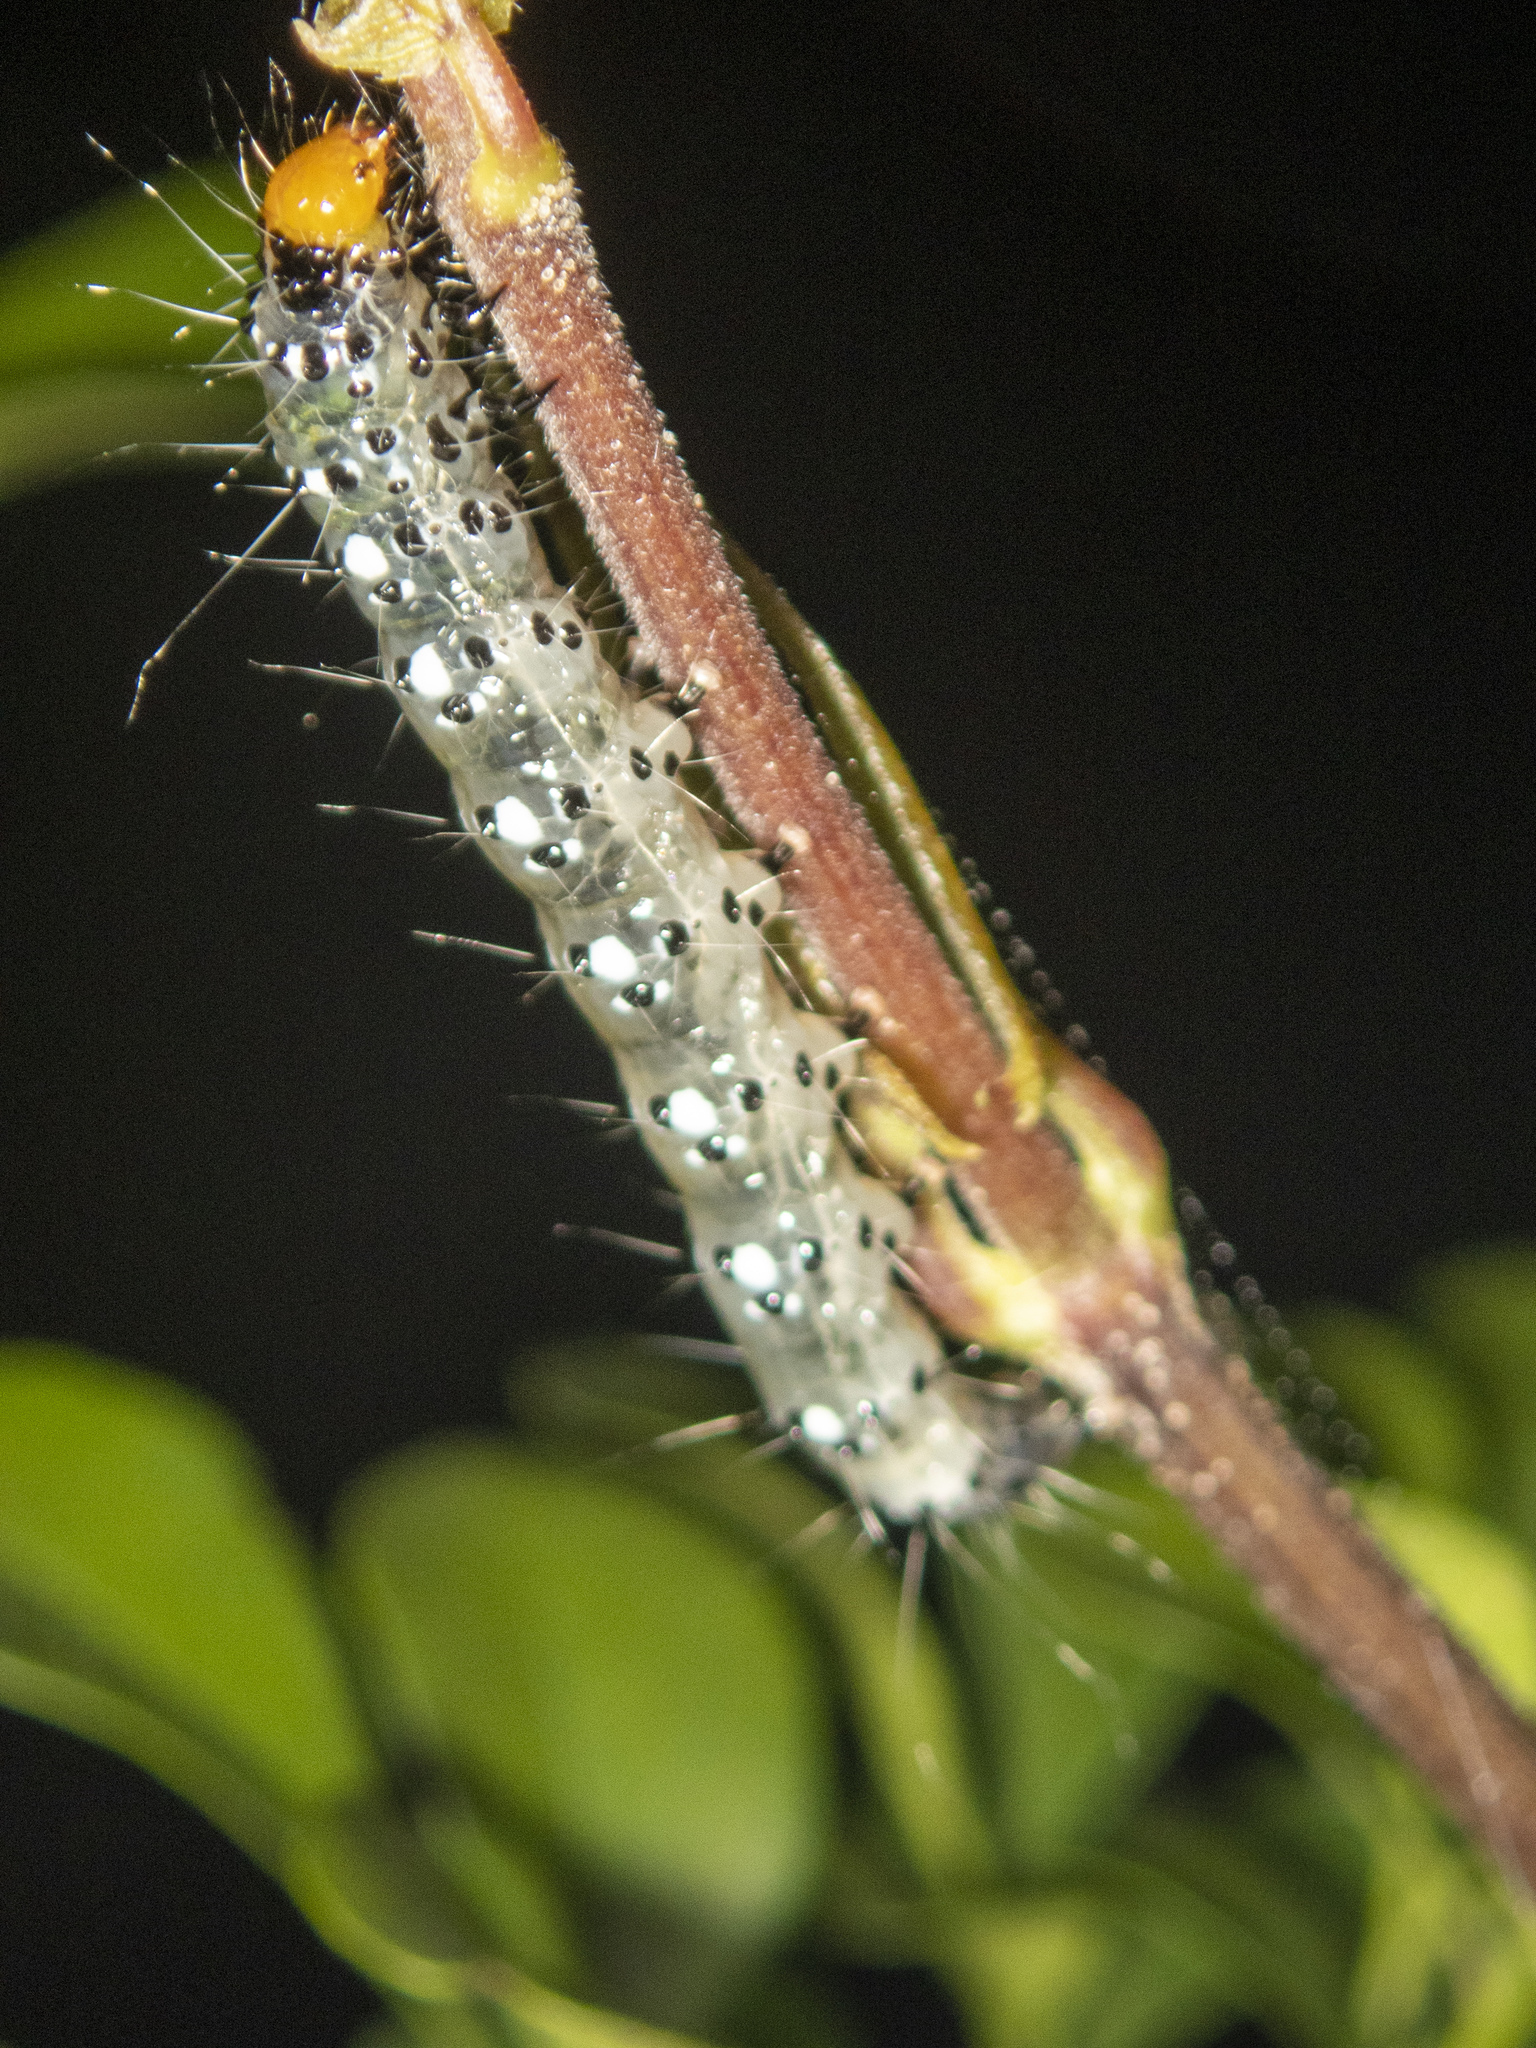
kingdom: Animalia
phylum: Arthropoda
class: Insecta
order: Lepidoptera
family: Crambidae
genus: Filodes
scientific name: Filodes fulvidorsalis
